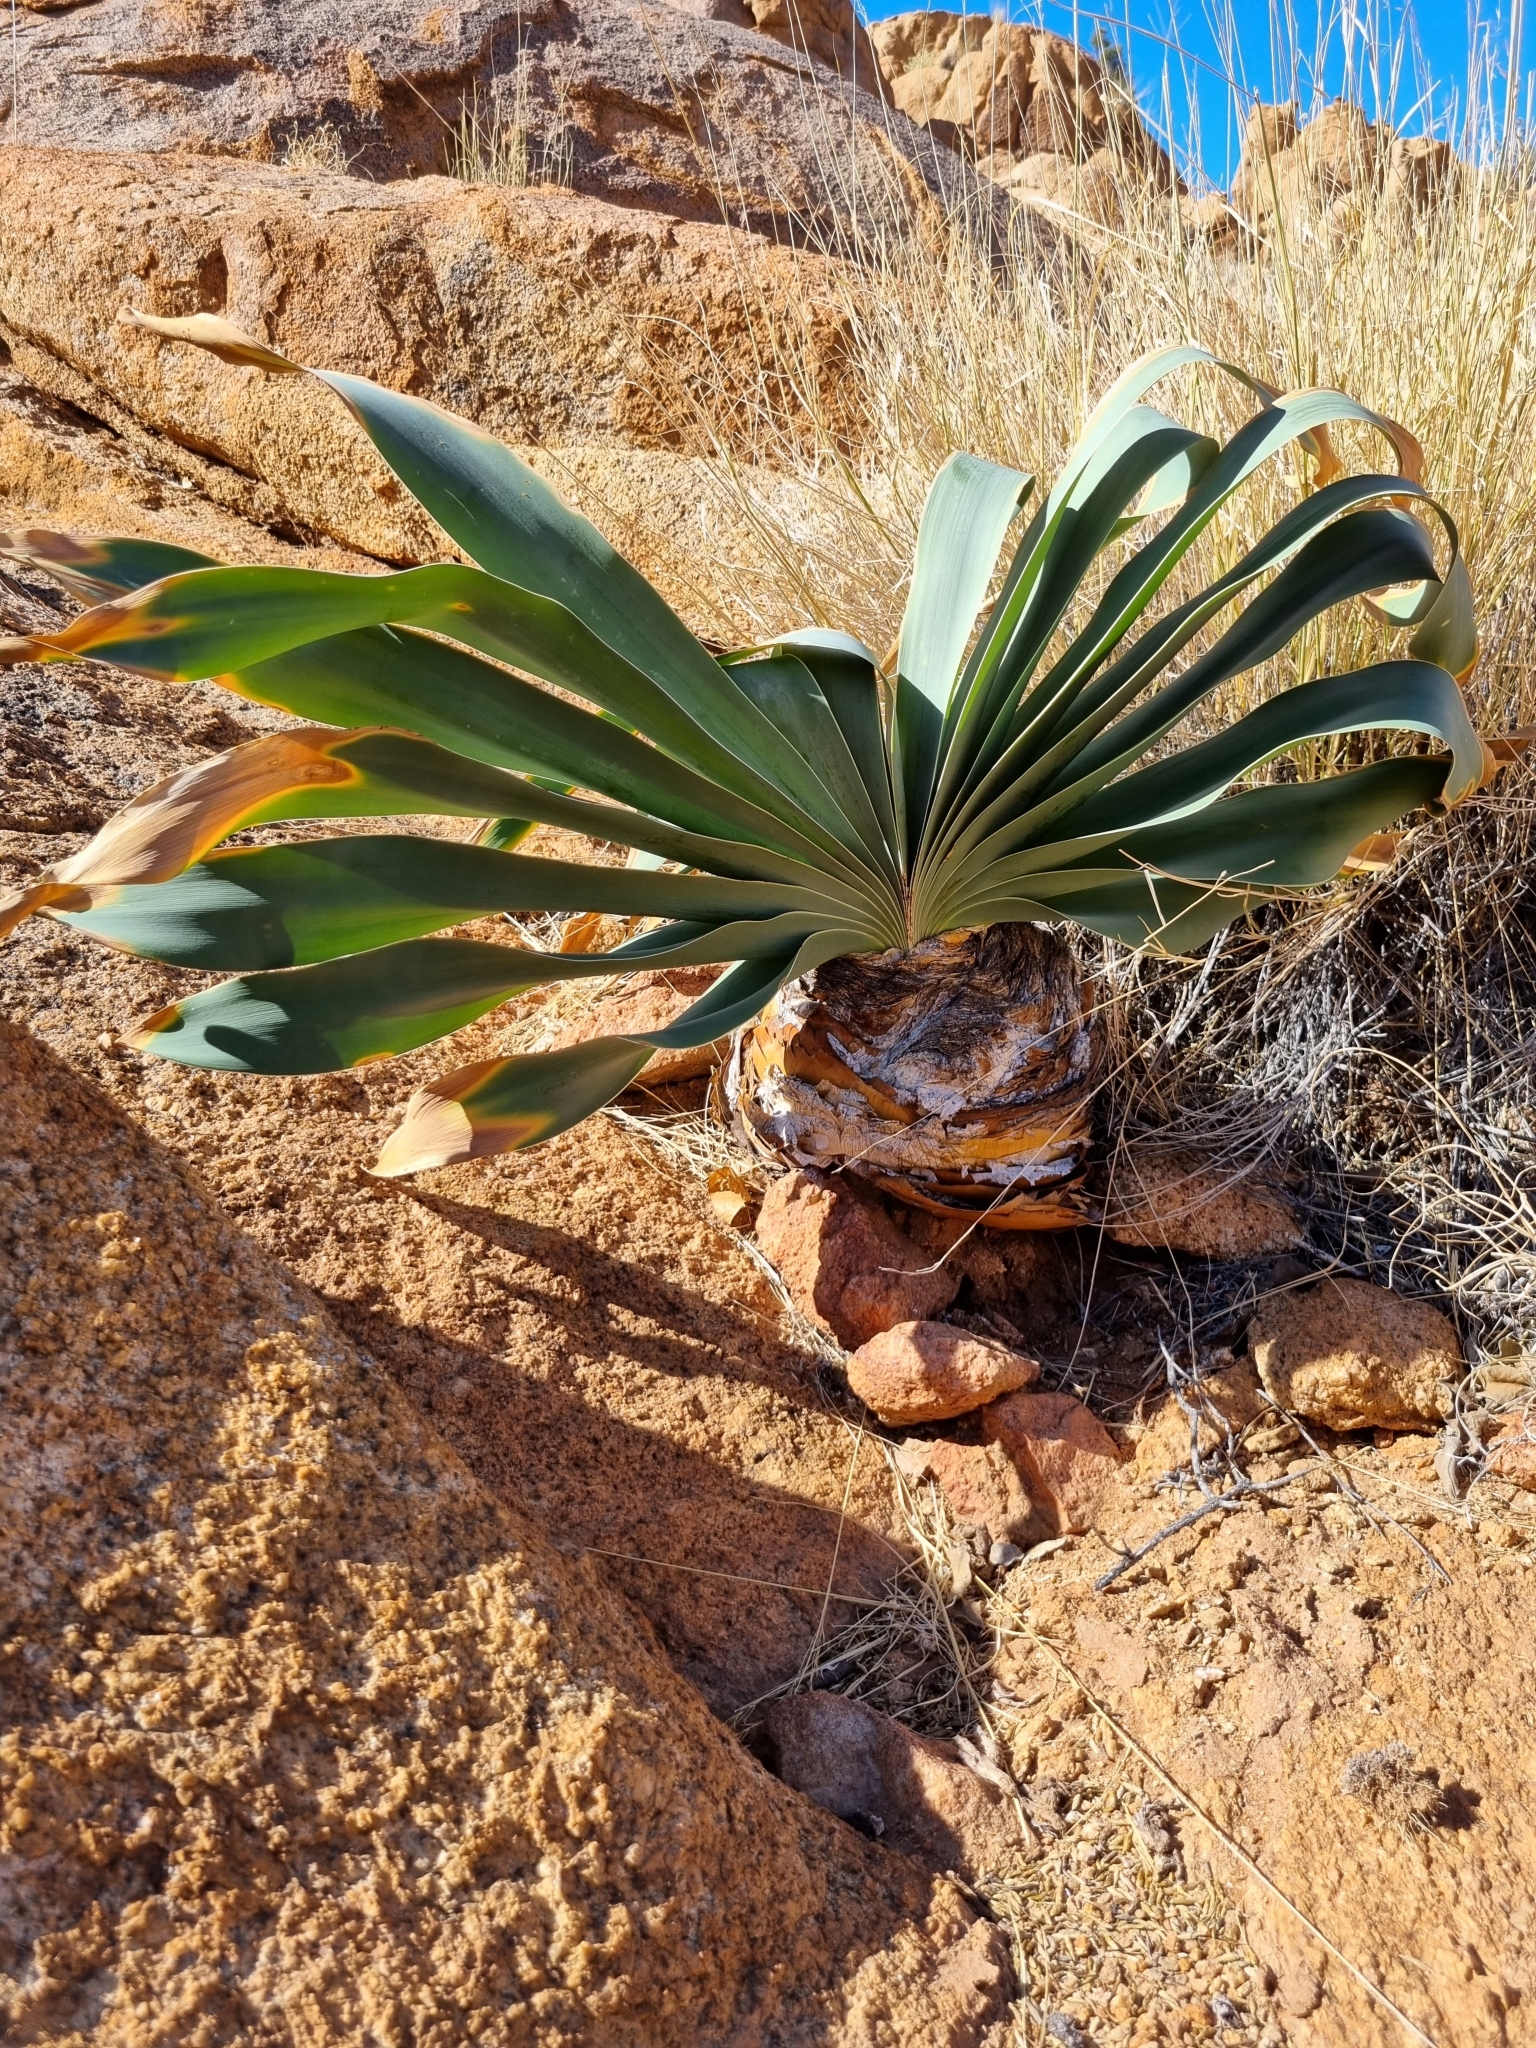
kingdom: Plantae
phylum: Tracheophyta
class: Liliopsida
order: Asparagales
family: Amaryllidaceae
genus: Boophone
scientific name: Boophone disticha
